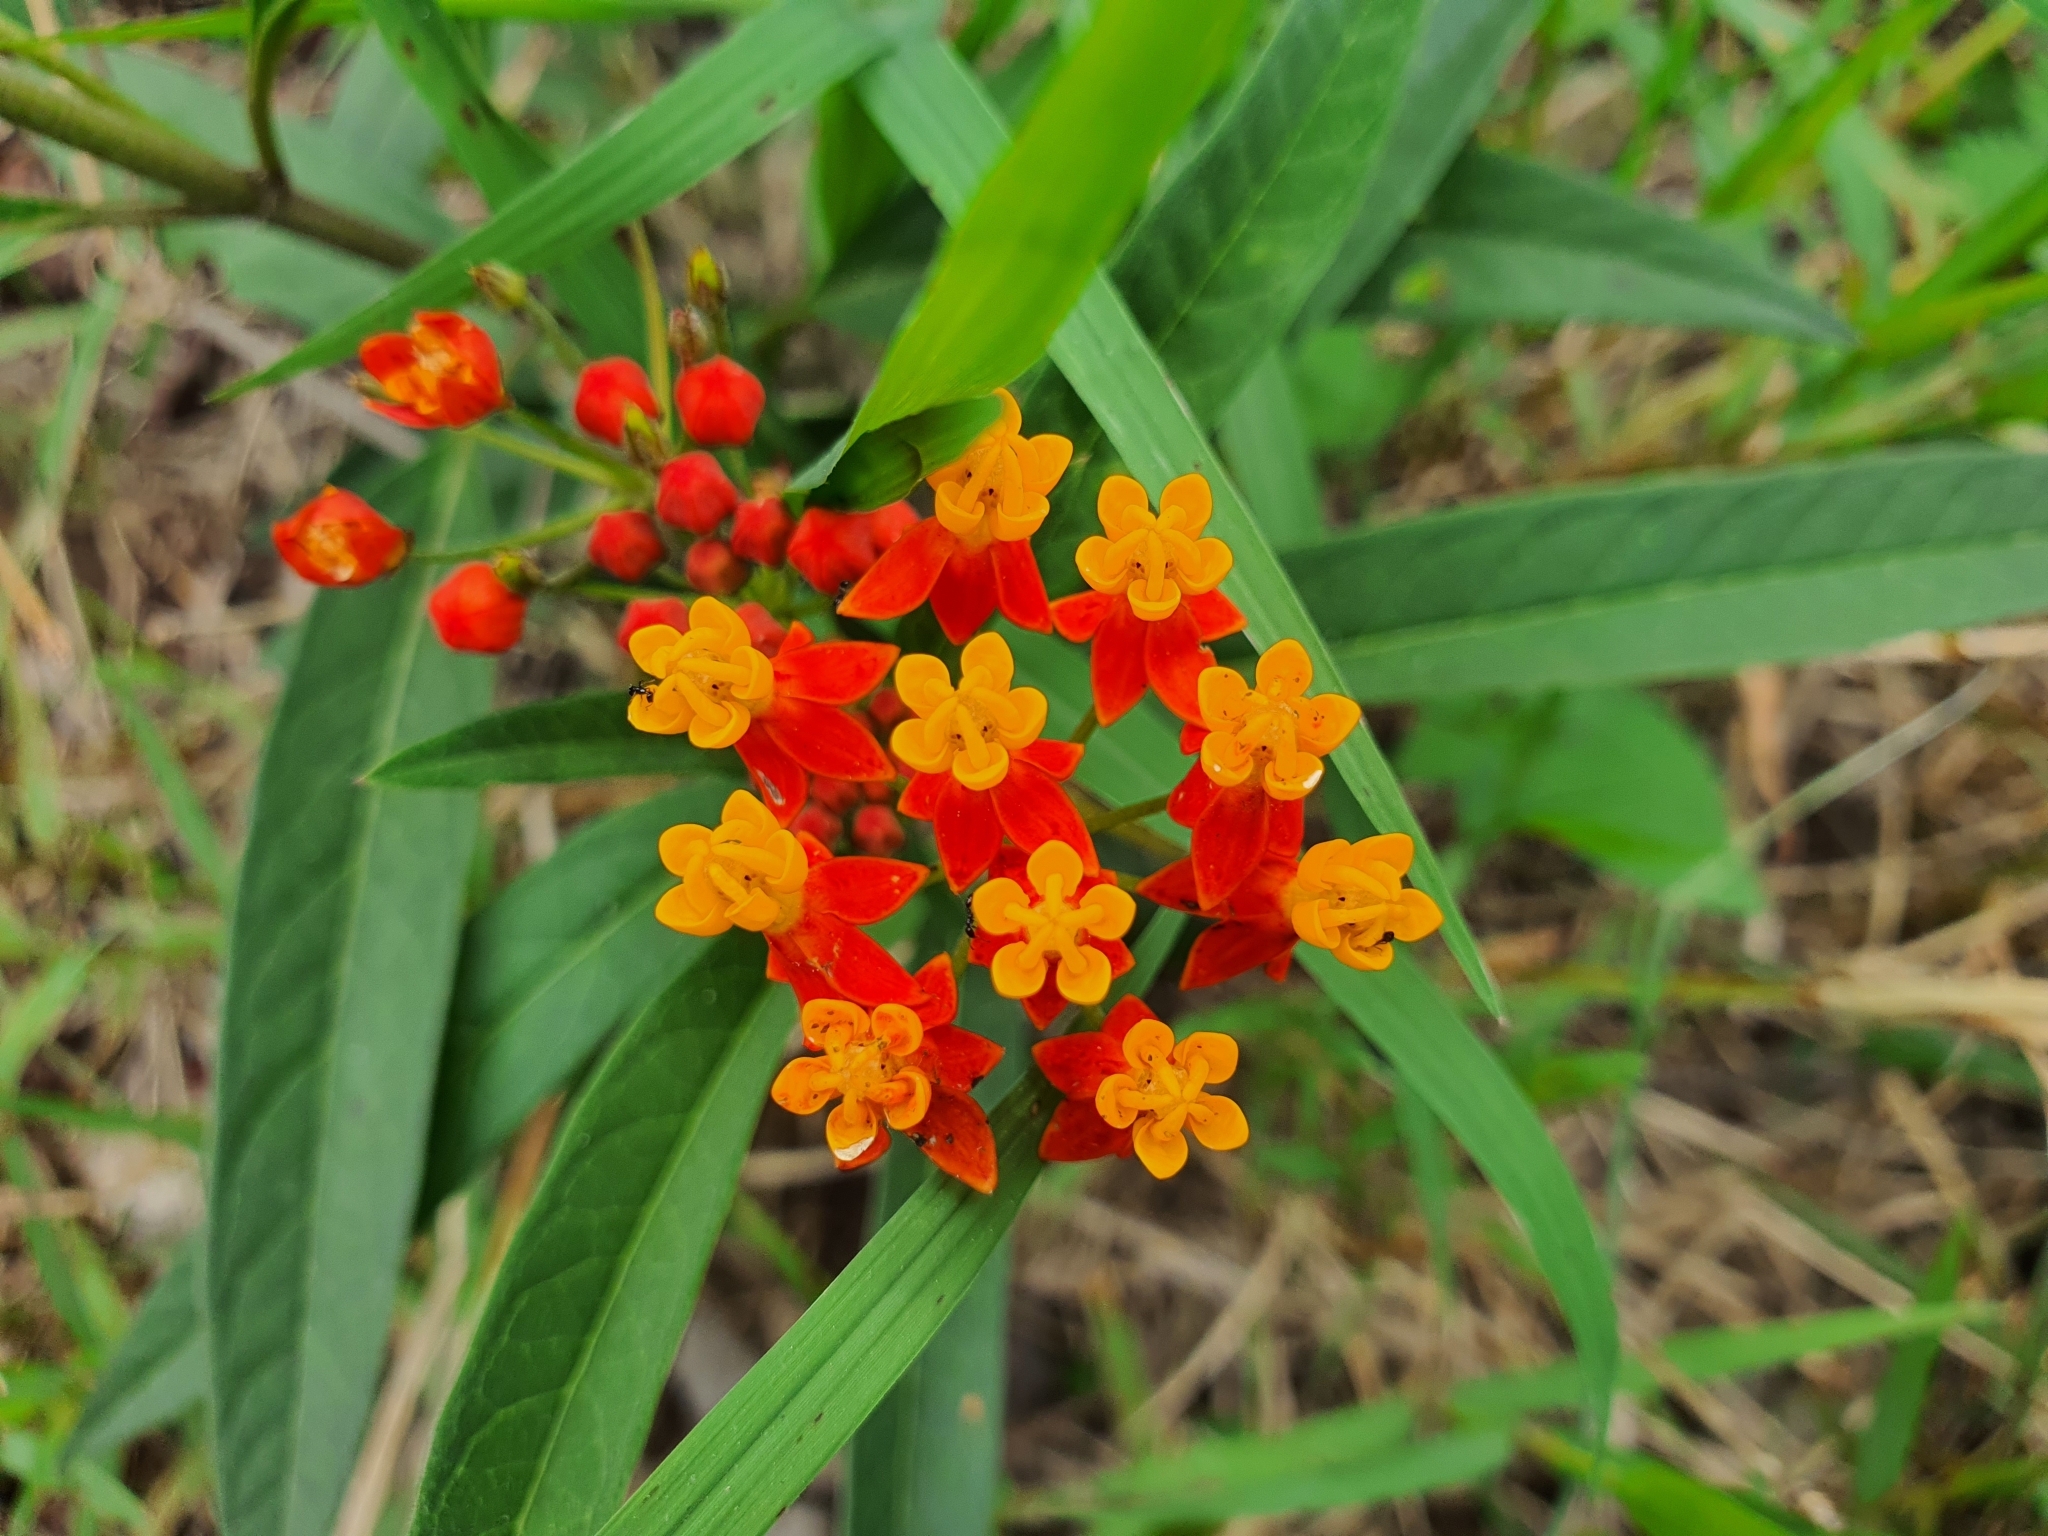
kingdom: Plantae
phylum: Tracheophyta
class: Magnoliopsida
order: Gentianales
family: Apocynaceae
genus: Asclepias
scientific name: Asclepias curassavica
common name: Bloodflower
